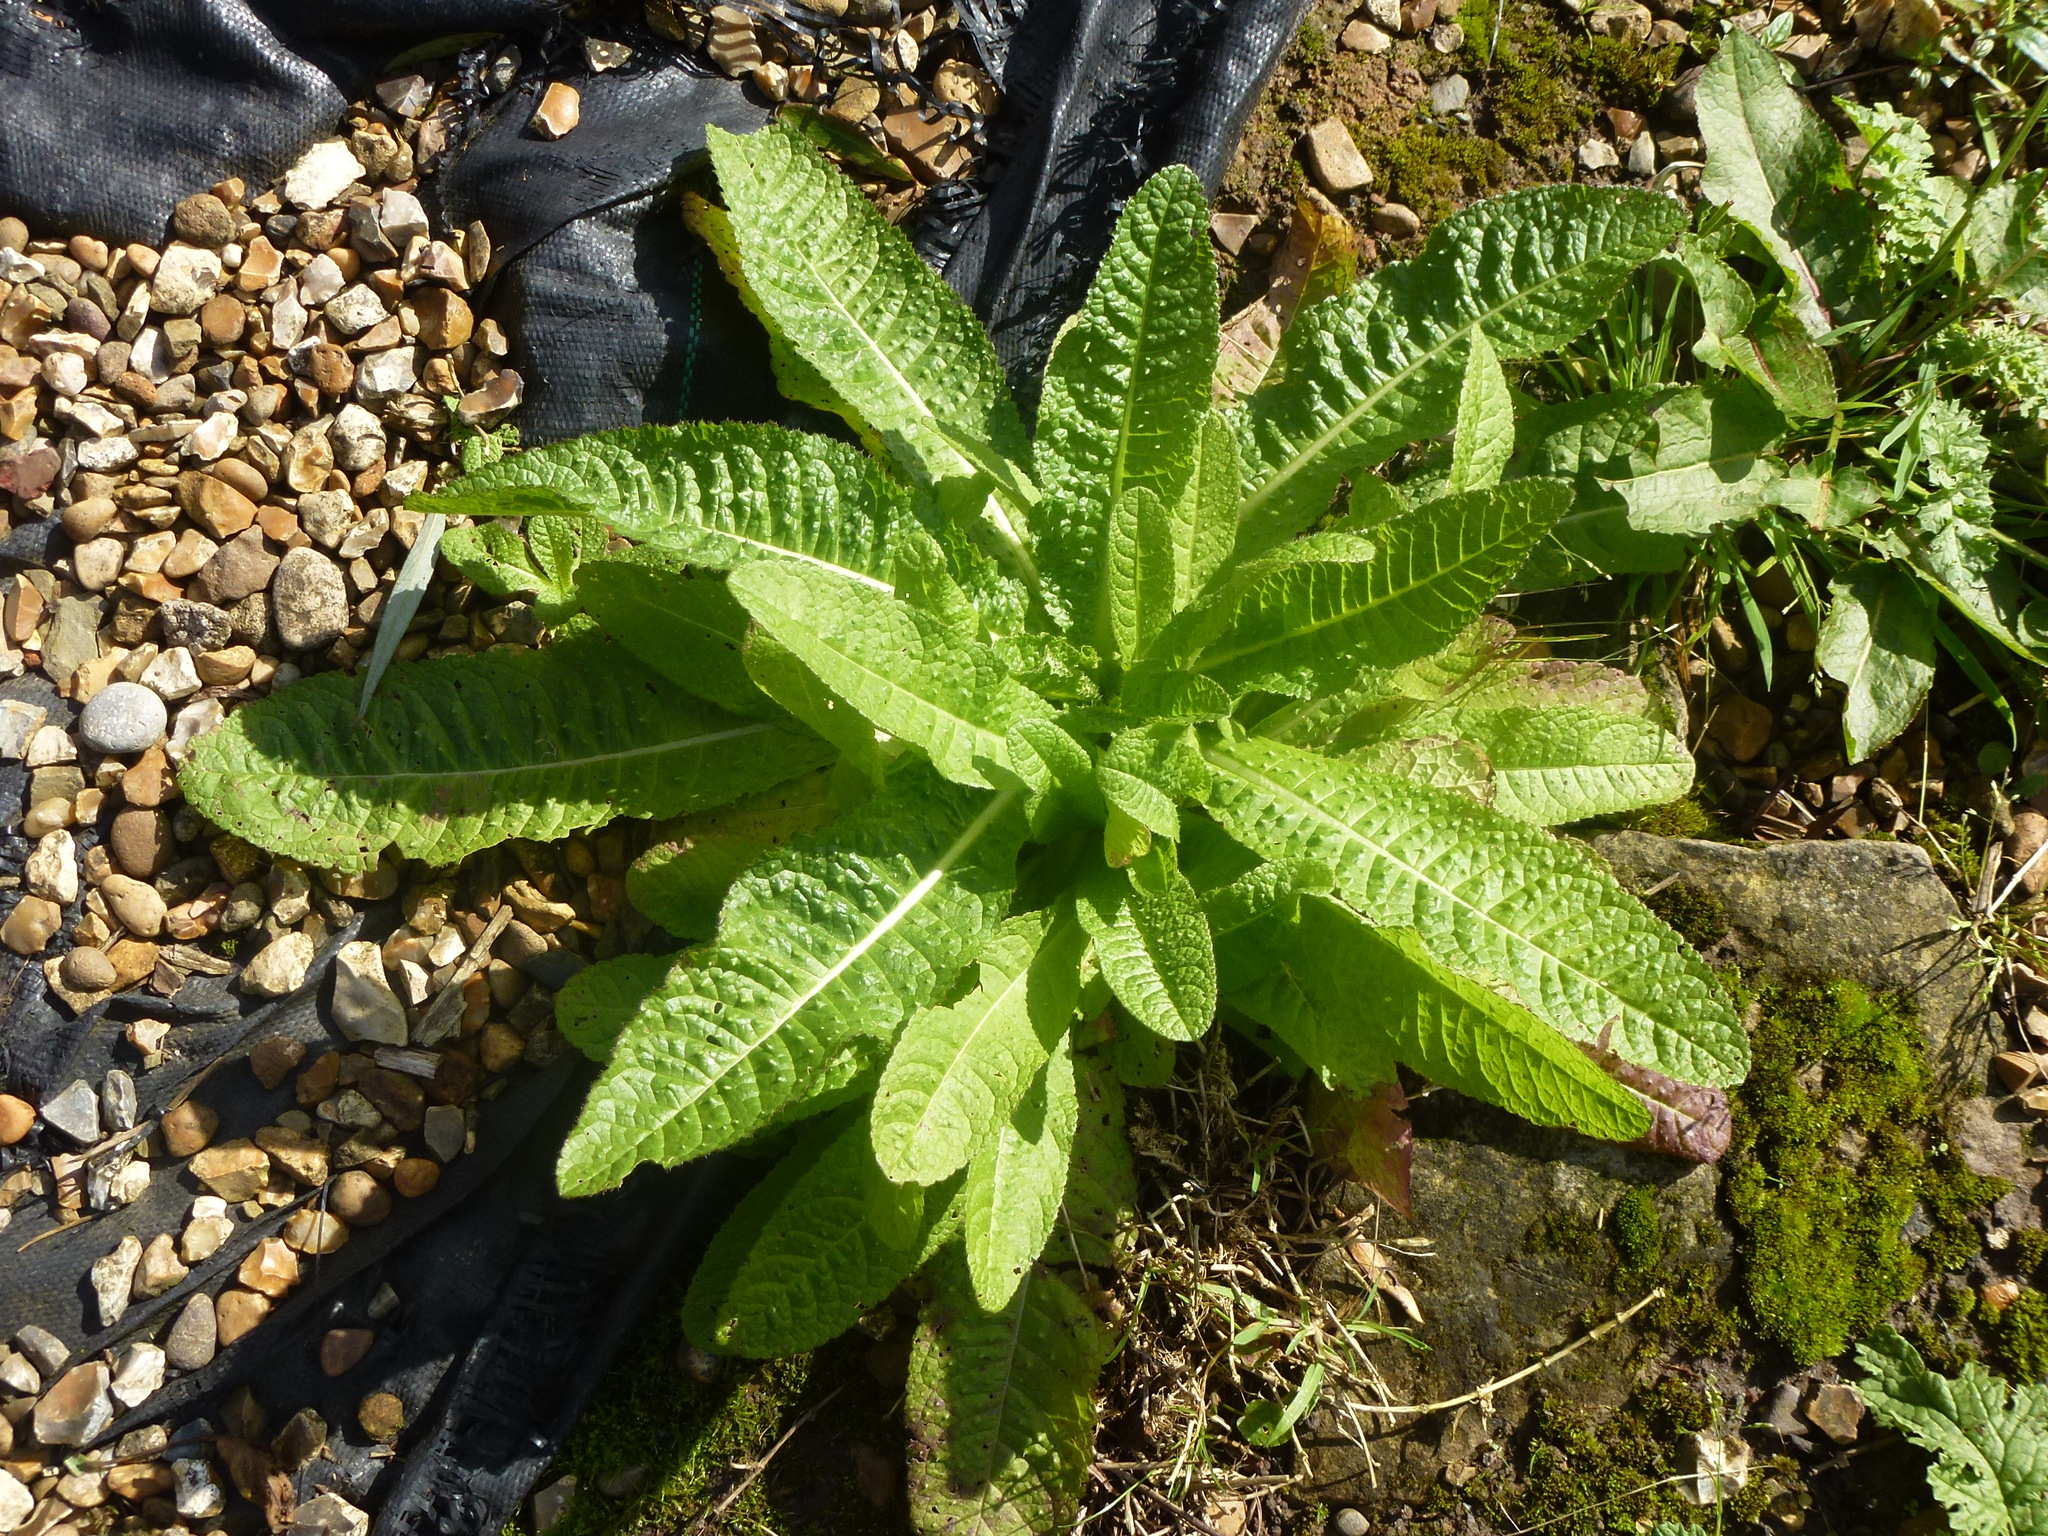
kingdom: Plantae
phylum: Tracheophyta
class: Magnoliopsida
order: Dipsacales
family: Caprifoliaceae
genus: Dipsacus
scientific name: Dipsacus fullonum
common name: Teasel
